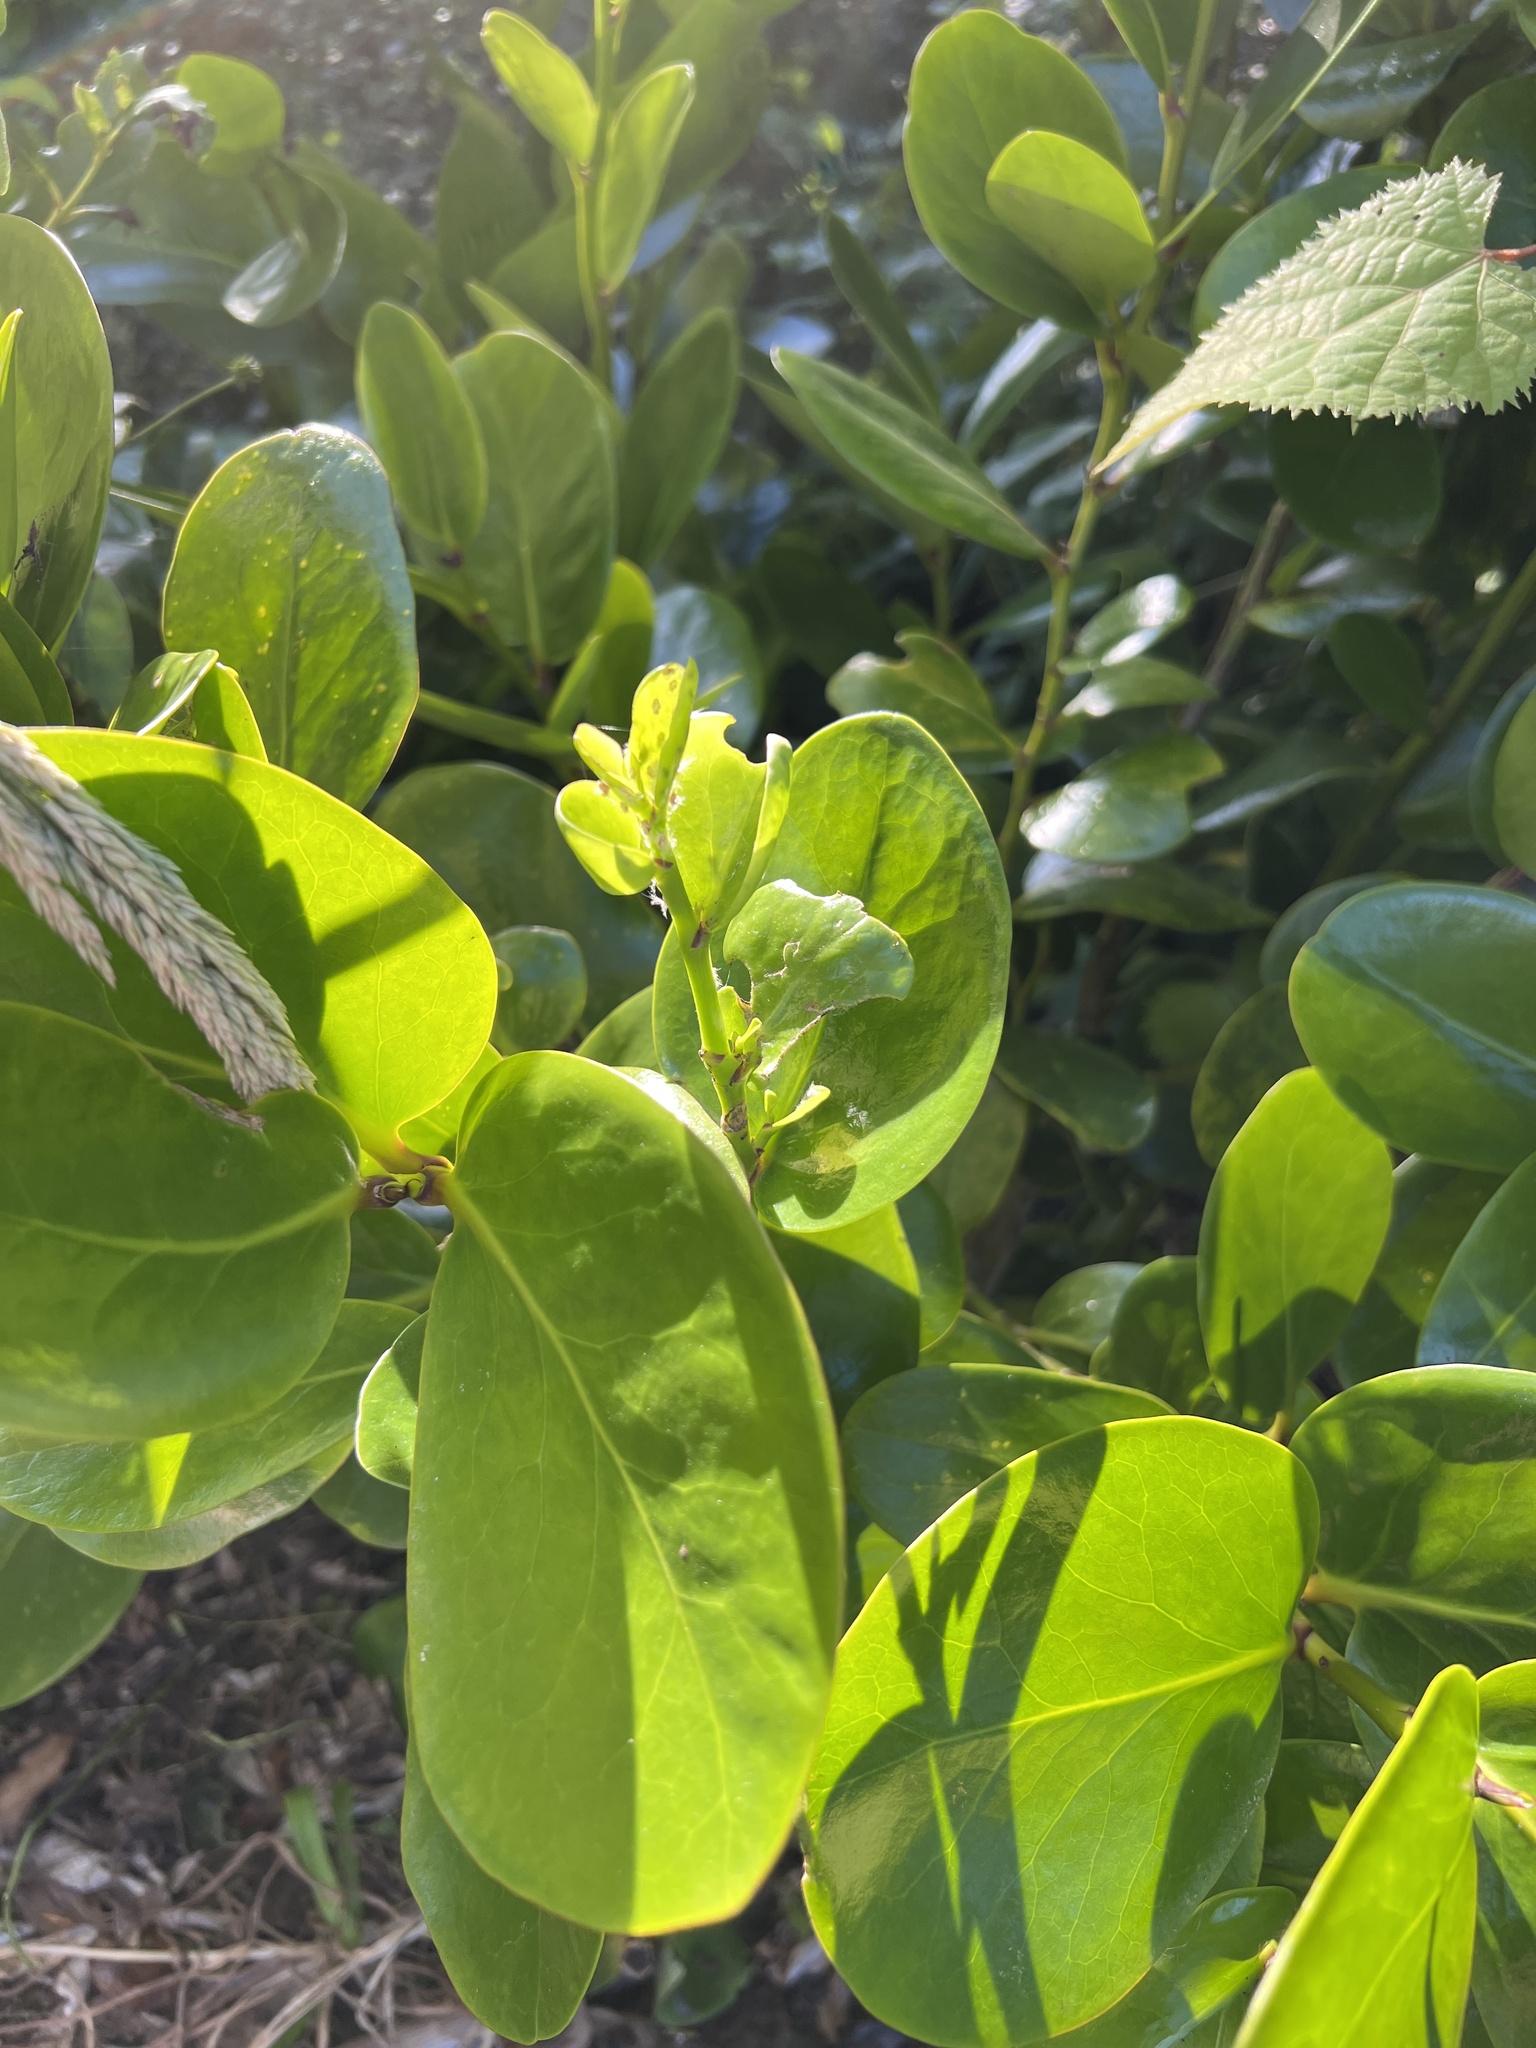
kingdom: Plantae
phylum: Tracheophyta
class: Magnoliopsida
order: Apiales
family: Griseliniaceae
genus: Griselinia
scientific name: Griselinia lucida
